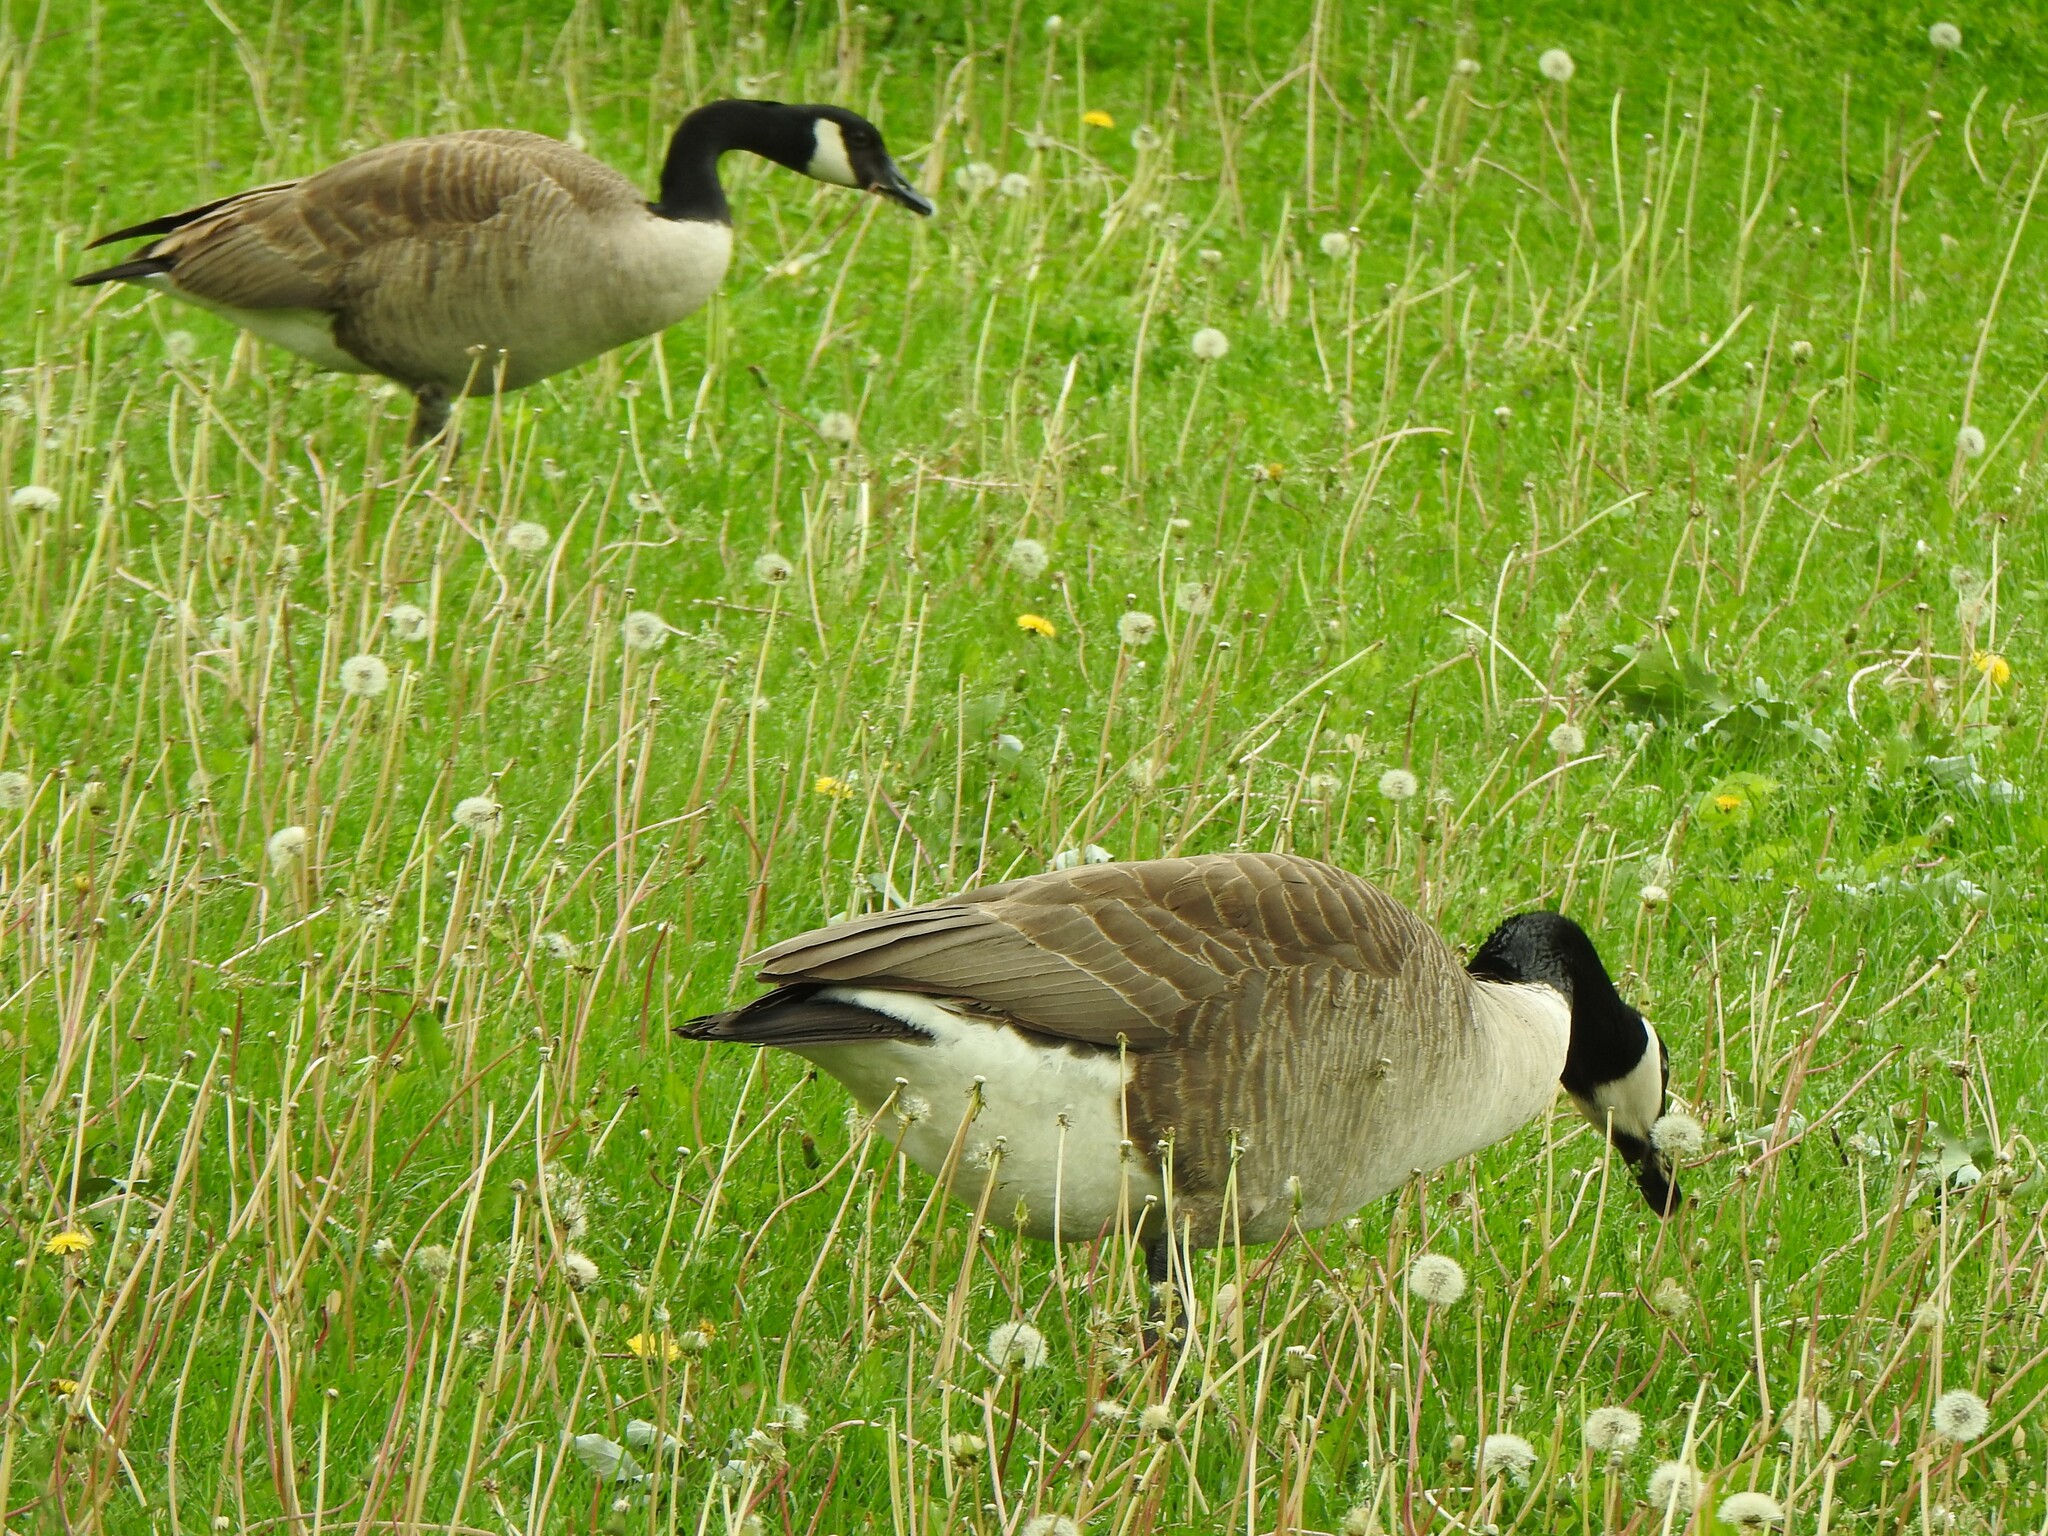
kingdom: Animalia
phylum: Chordata
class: Aves
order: Anseriformes
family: Anatidae
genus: Branta
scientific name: Branta canadensis
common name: Canada goose
